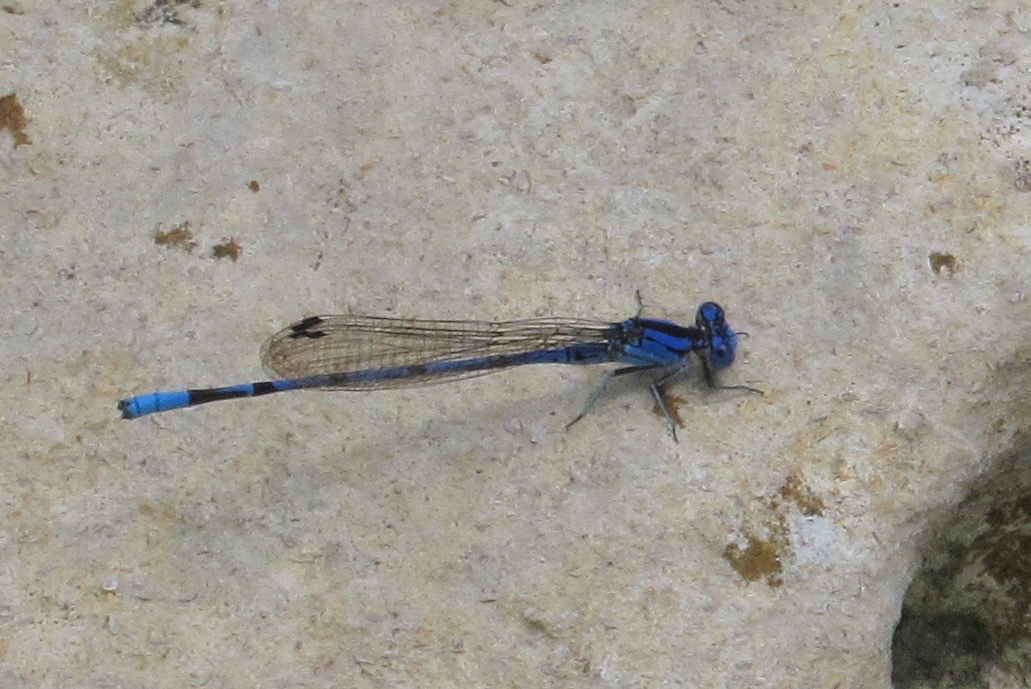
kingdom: Animalia
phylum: Arthropoda
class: Insecta
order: Odonata
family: Coenagrionidae
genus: Argia
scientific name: Argia funebris
